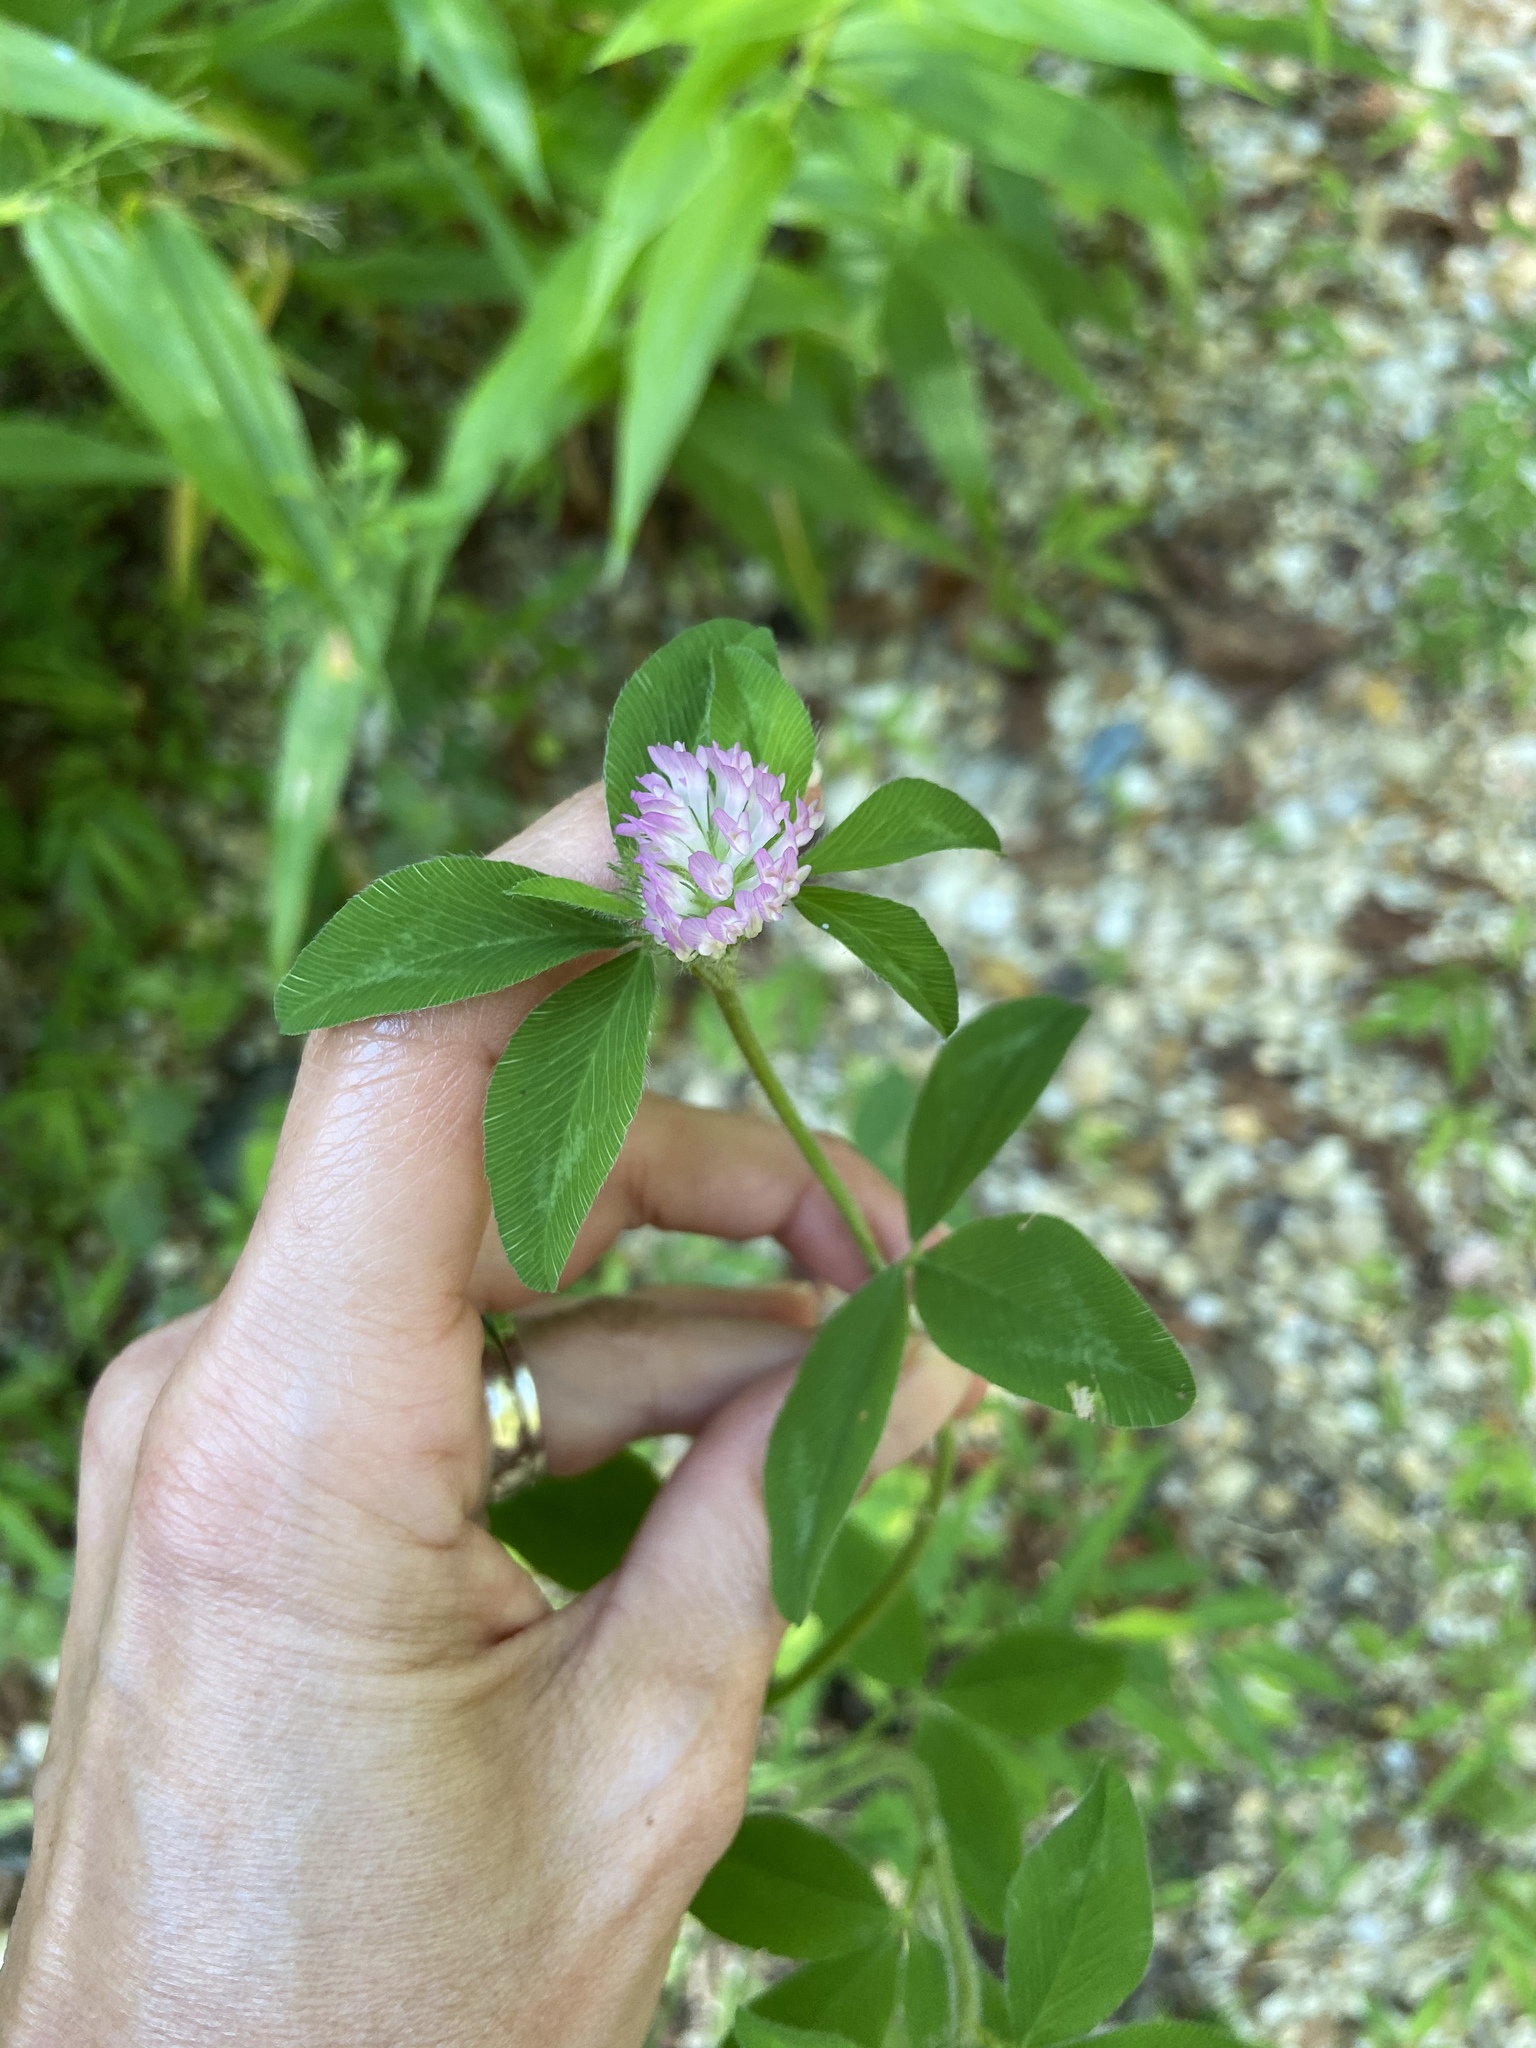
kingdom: Plantae
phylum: Tracheophyta
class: Magnoliopsida
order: Fabales
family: Fabaceae
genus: Trifolium
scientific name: Trifolium pratense
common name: Red clover
